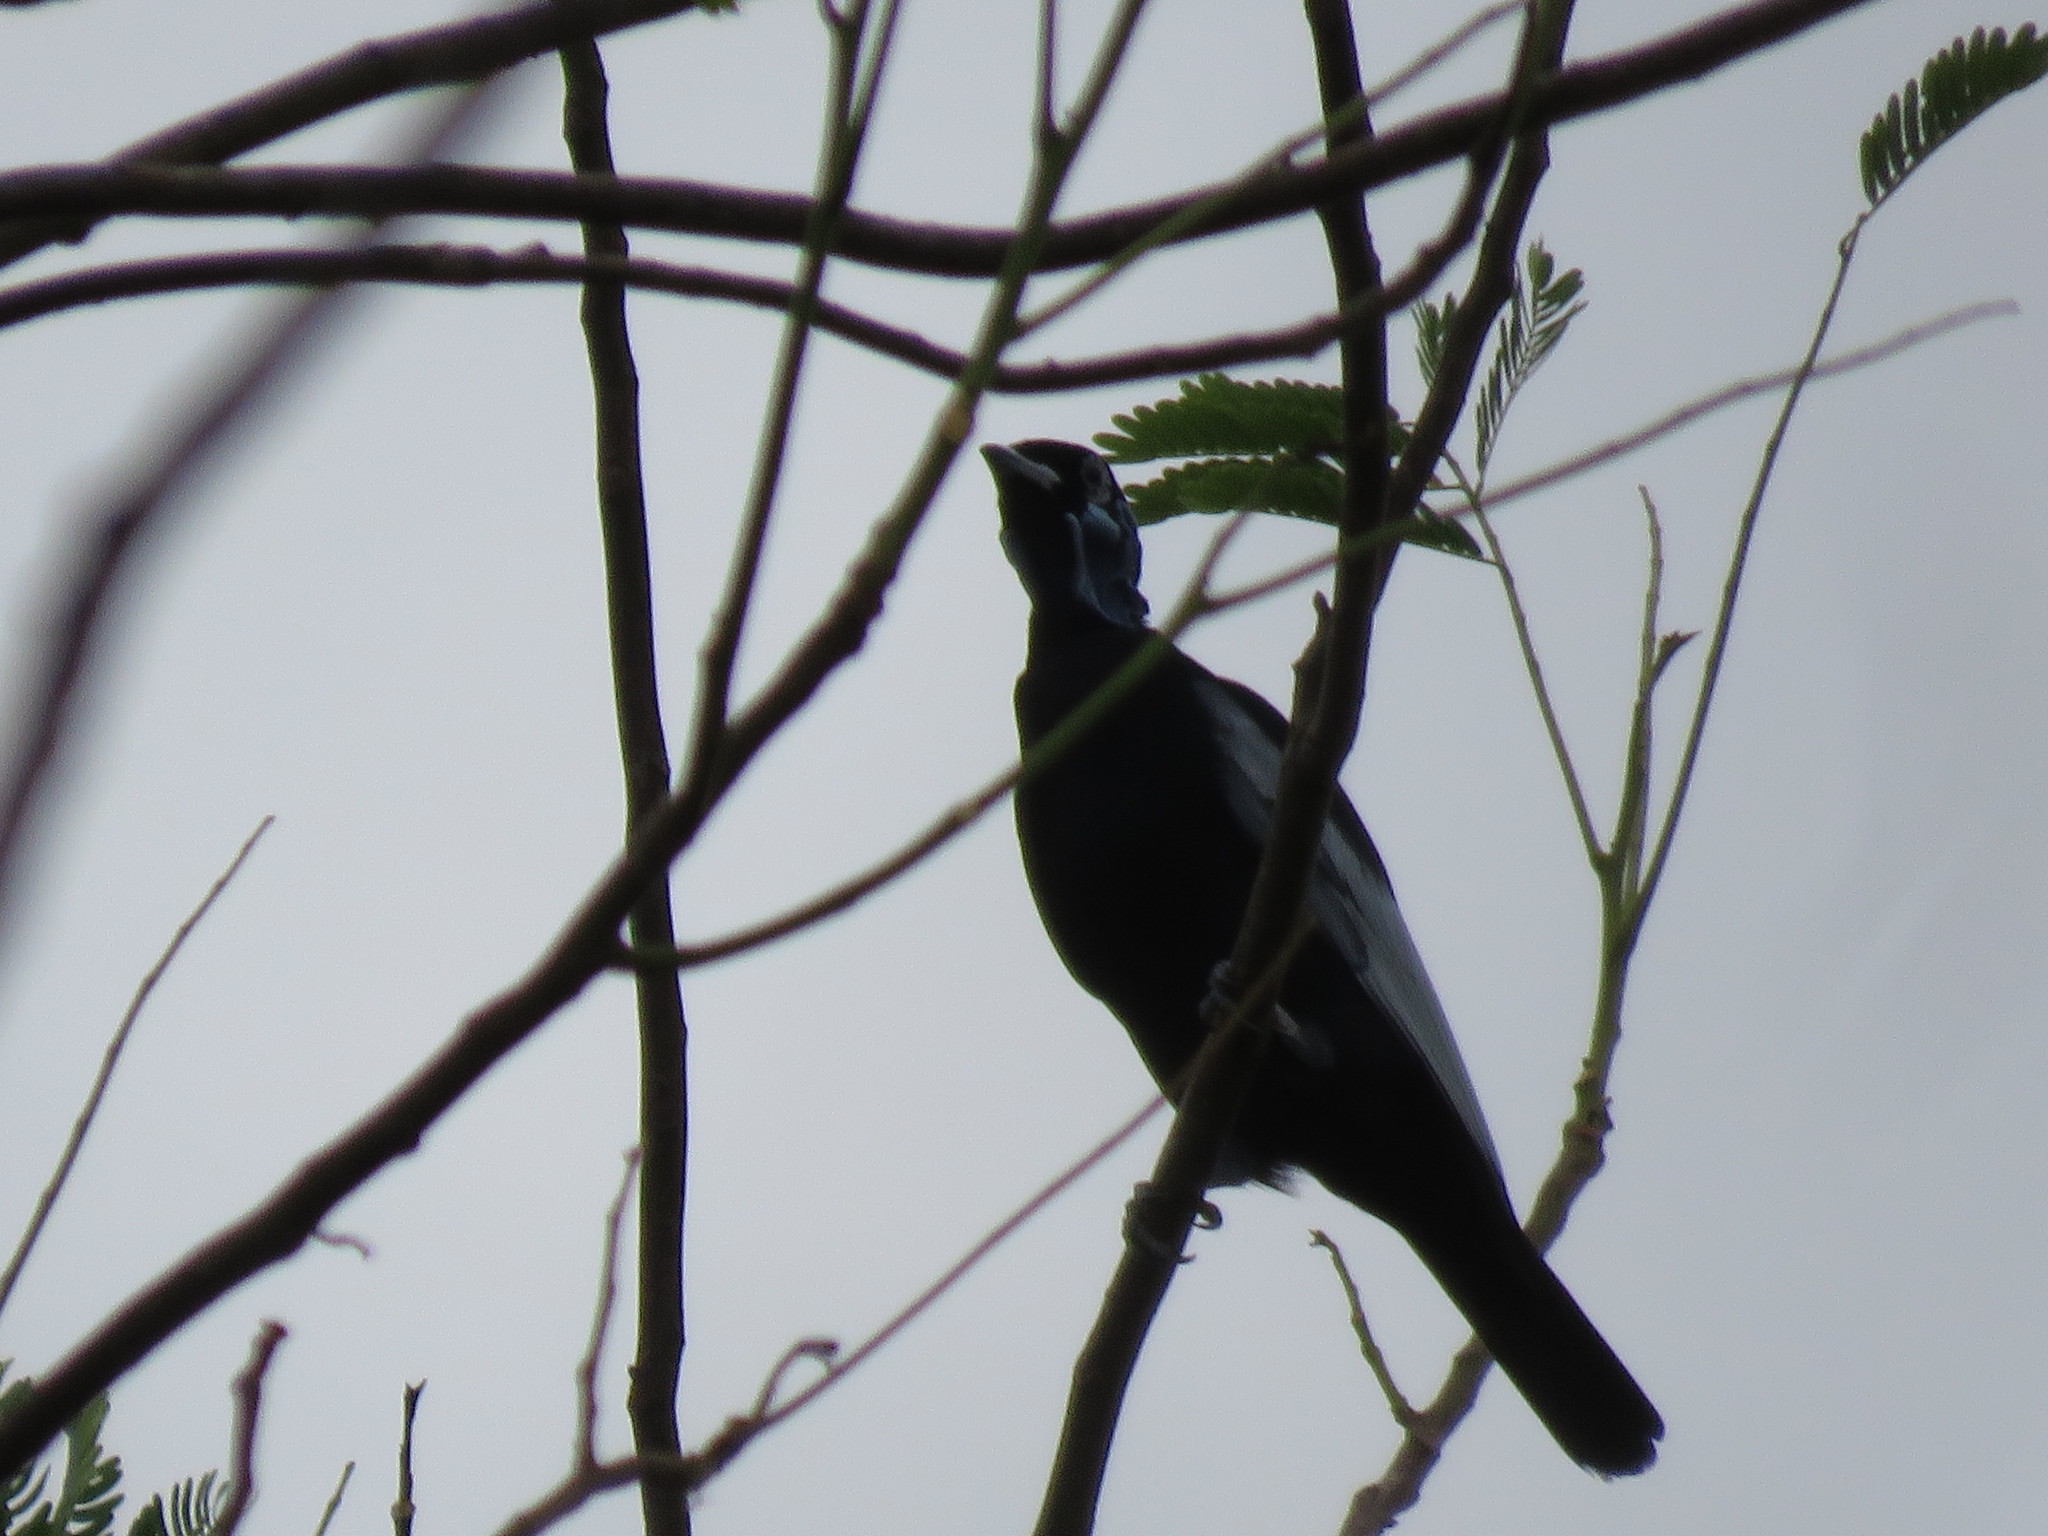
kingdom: Animalia
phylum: Chordata
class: Aves
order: Passeriformes
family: Cotingidae
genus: Gymnoderus
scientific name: Gymnoderus foetidus
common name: Bare-necked fruitcrow
